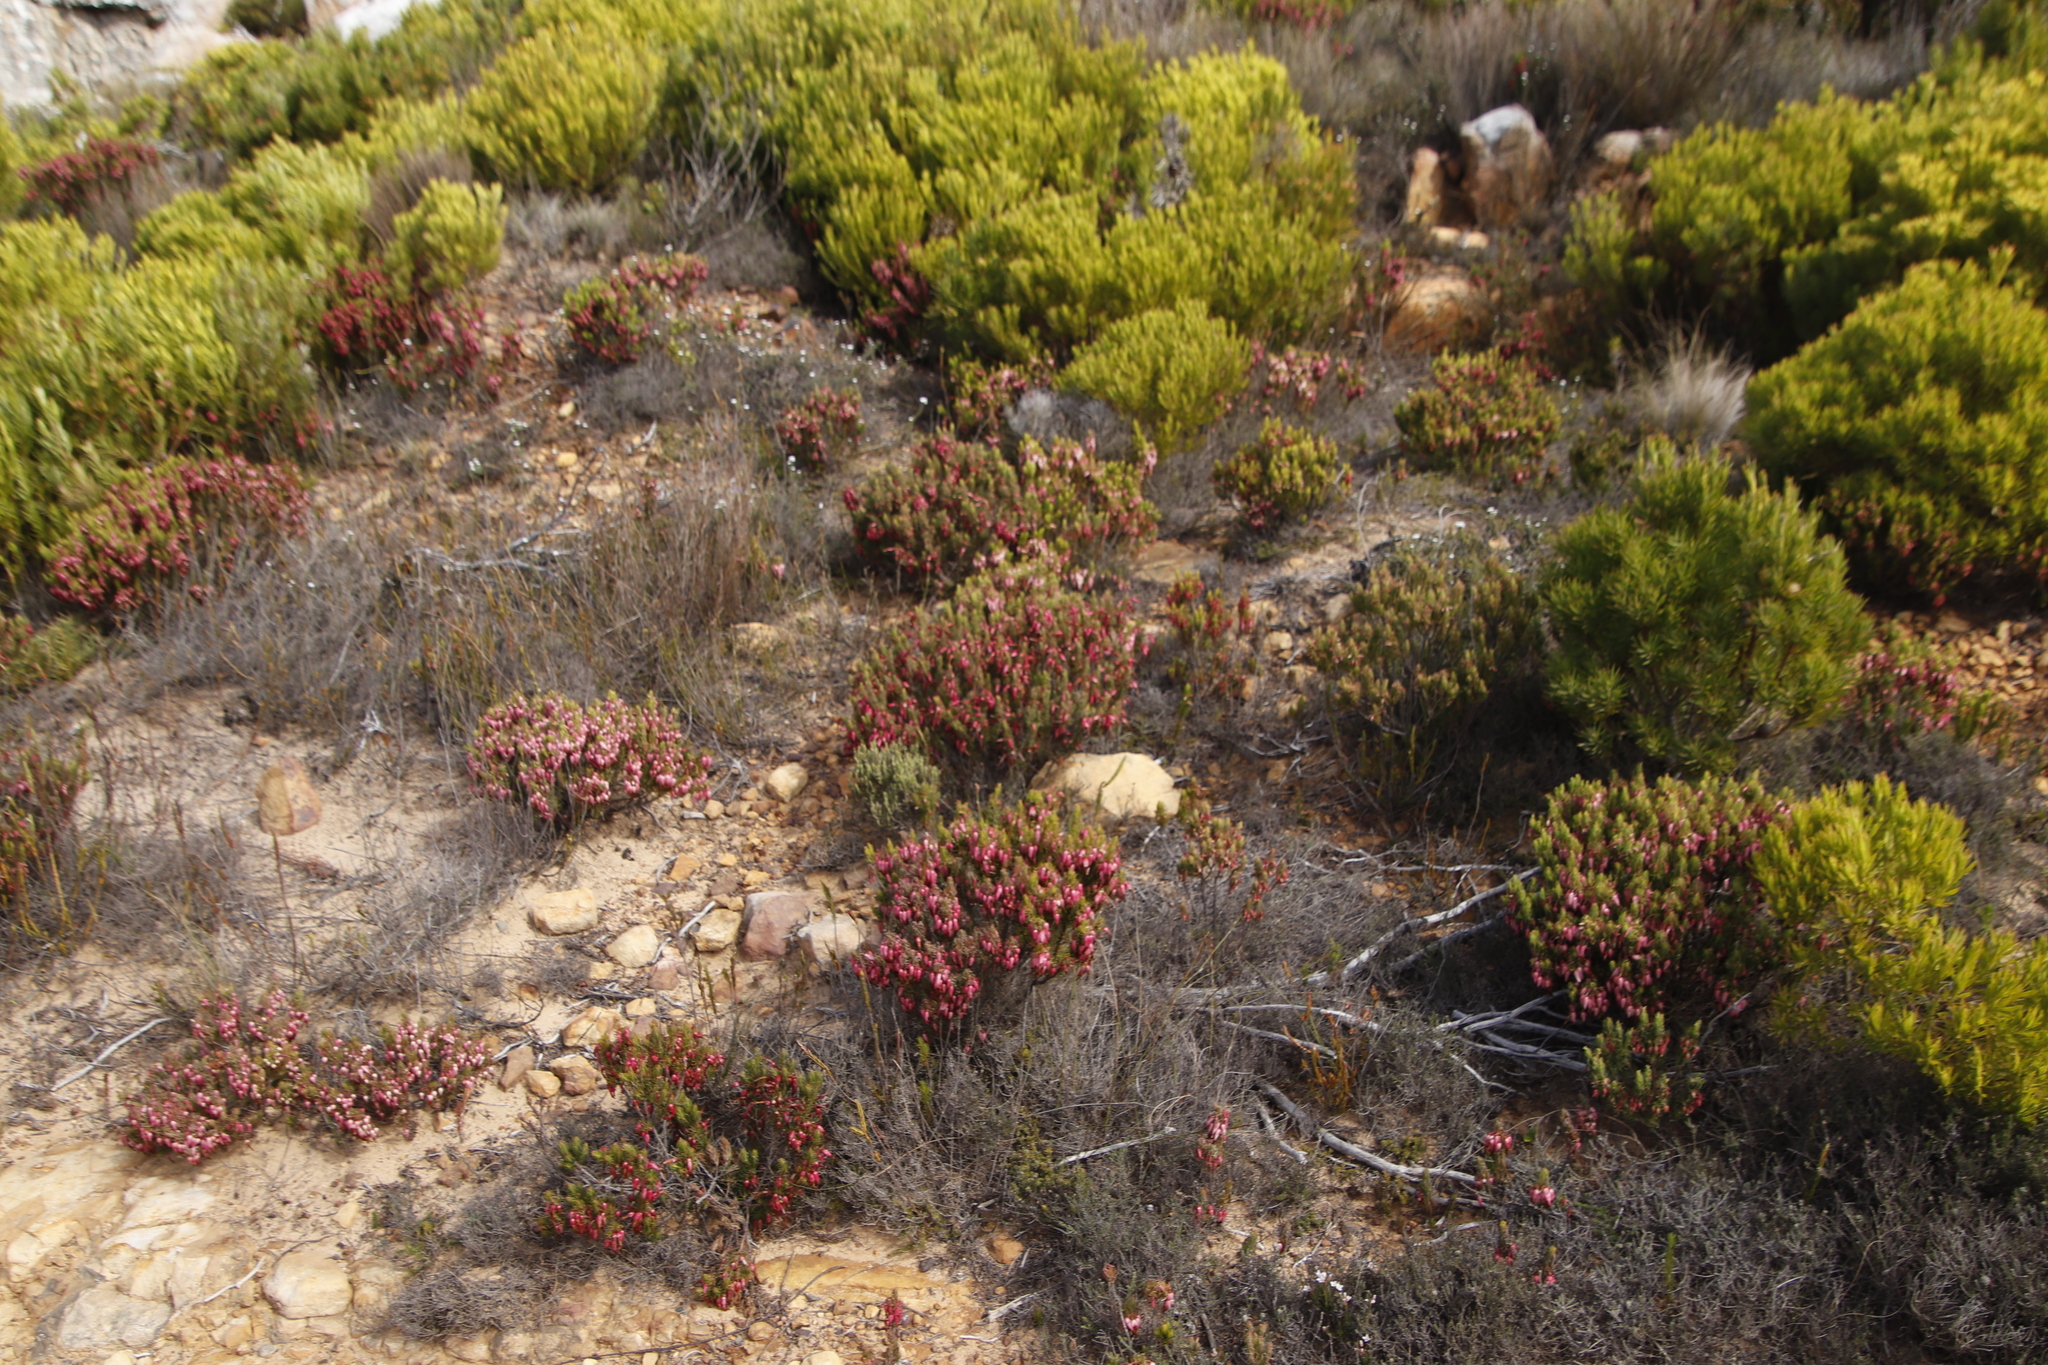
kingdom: Plantae
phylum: Tracheophyta
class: Magnoliopsida
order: Ericales
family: Ericaceae
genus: Erica
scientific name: Erica plukenetii
